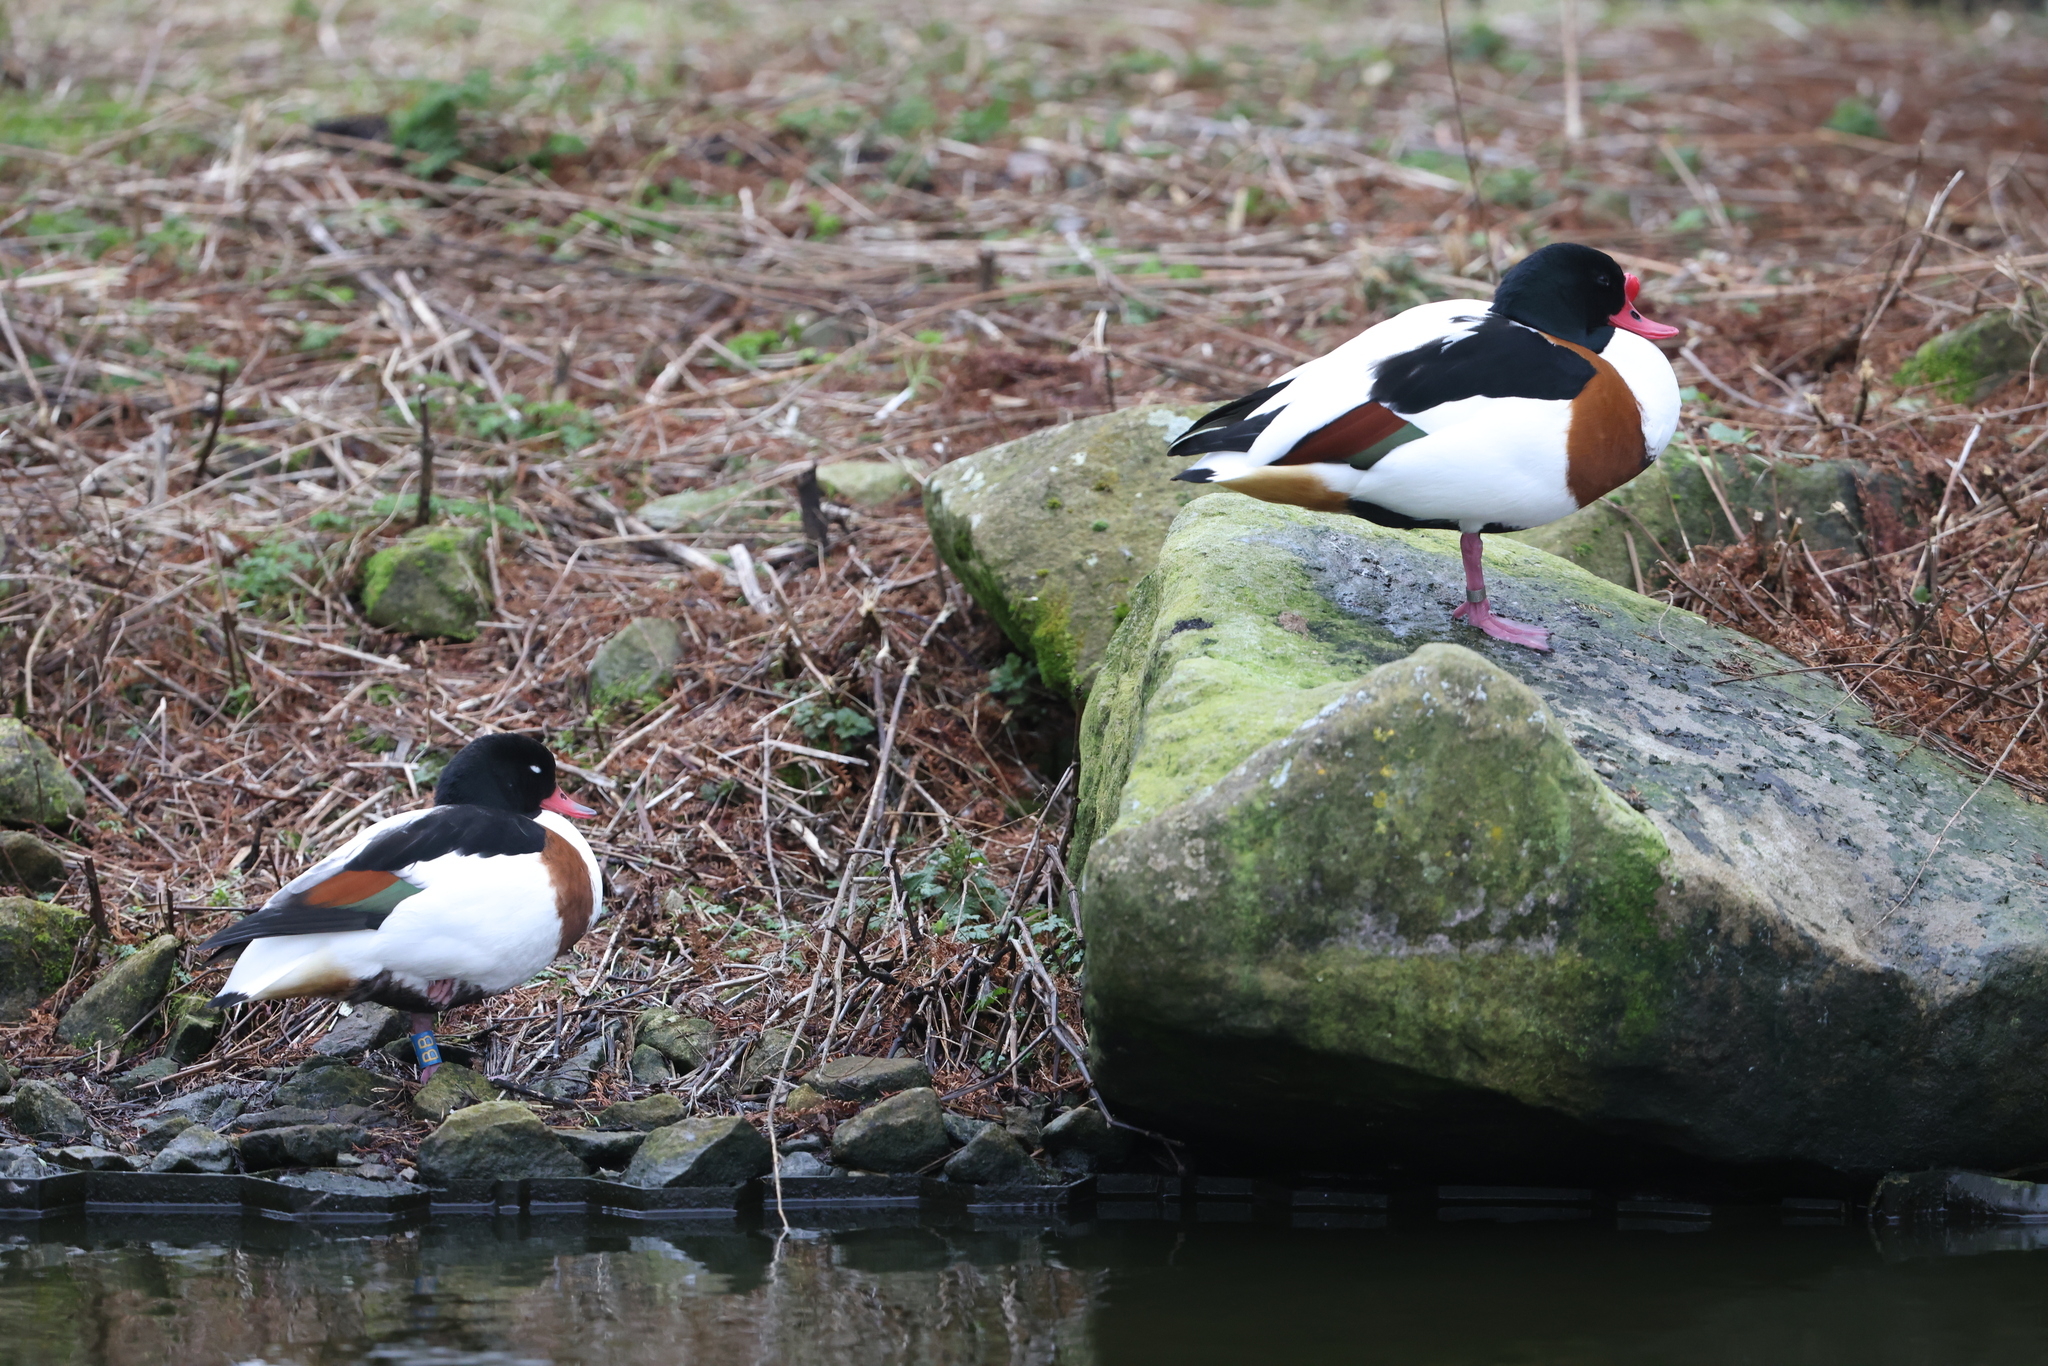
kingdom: Animalia
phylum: Chordata
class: Aves
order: Anseriformes
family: Anatidae
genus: Tadorna
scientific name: Tadorna tadorna
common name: Common shelduck
